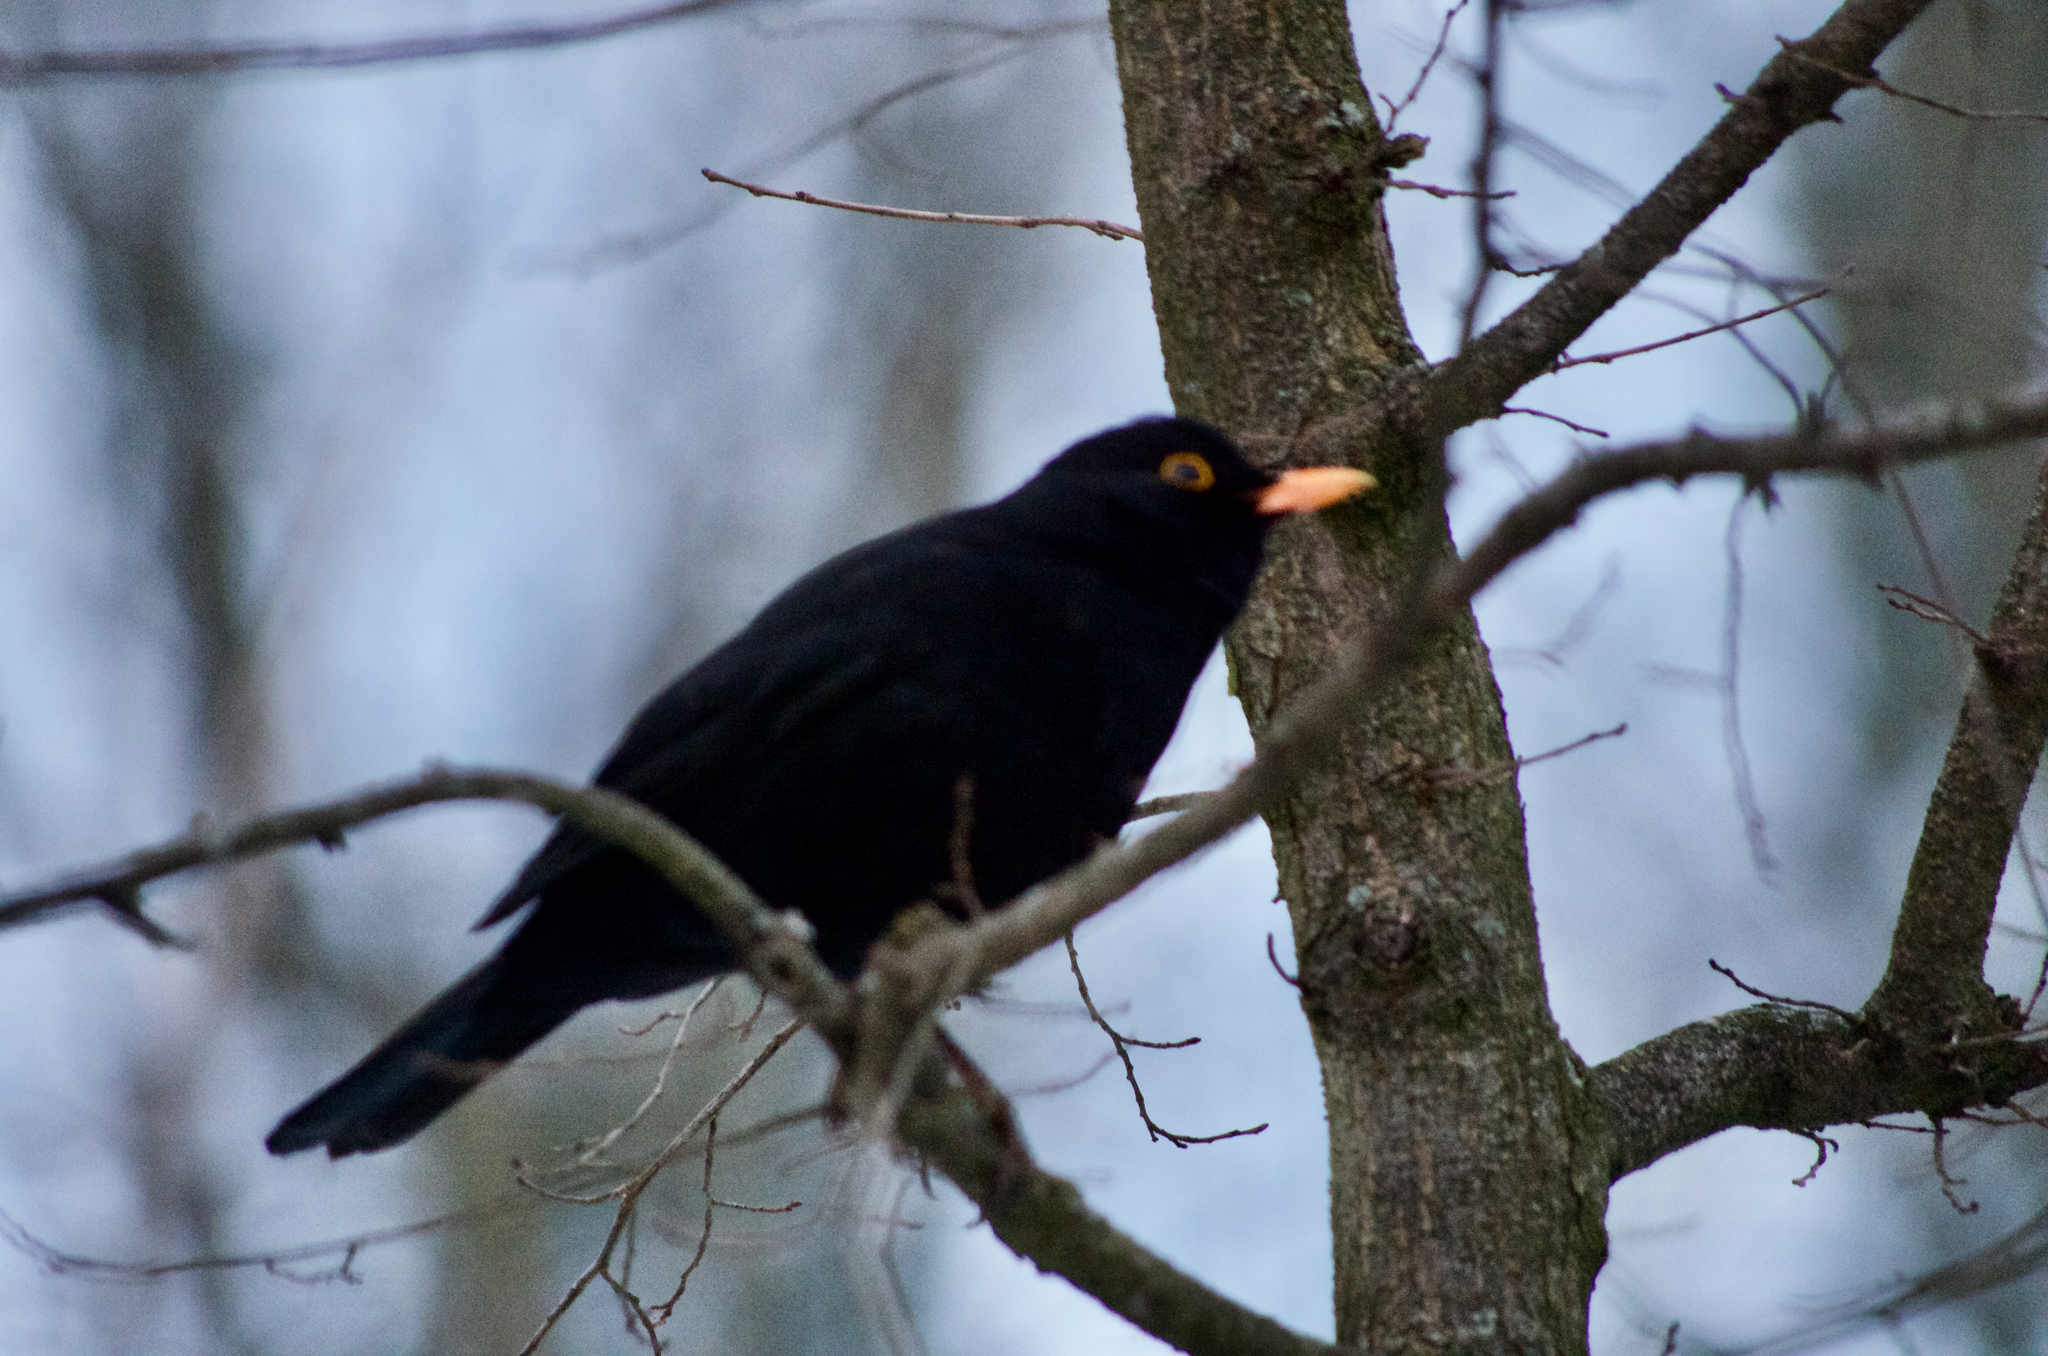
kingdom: Animalia
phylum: Chordata
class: Aves
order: Passeriformes
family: Turdidae
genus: Turdus
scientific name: Turdus merula
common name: Common blackbird
